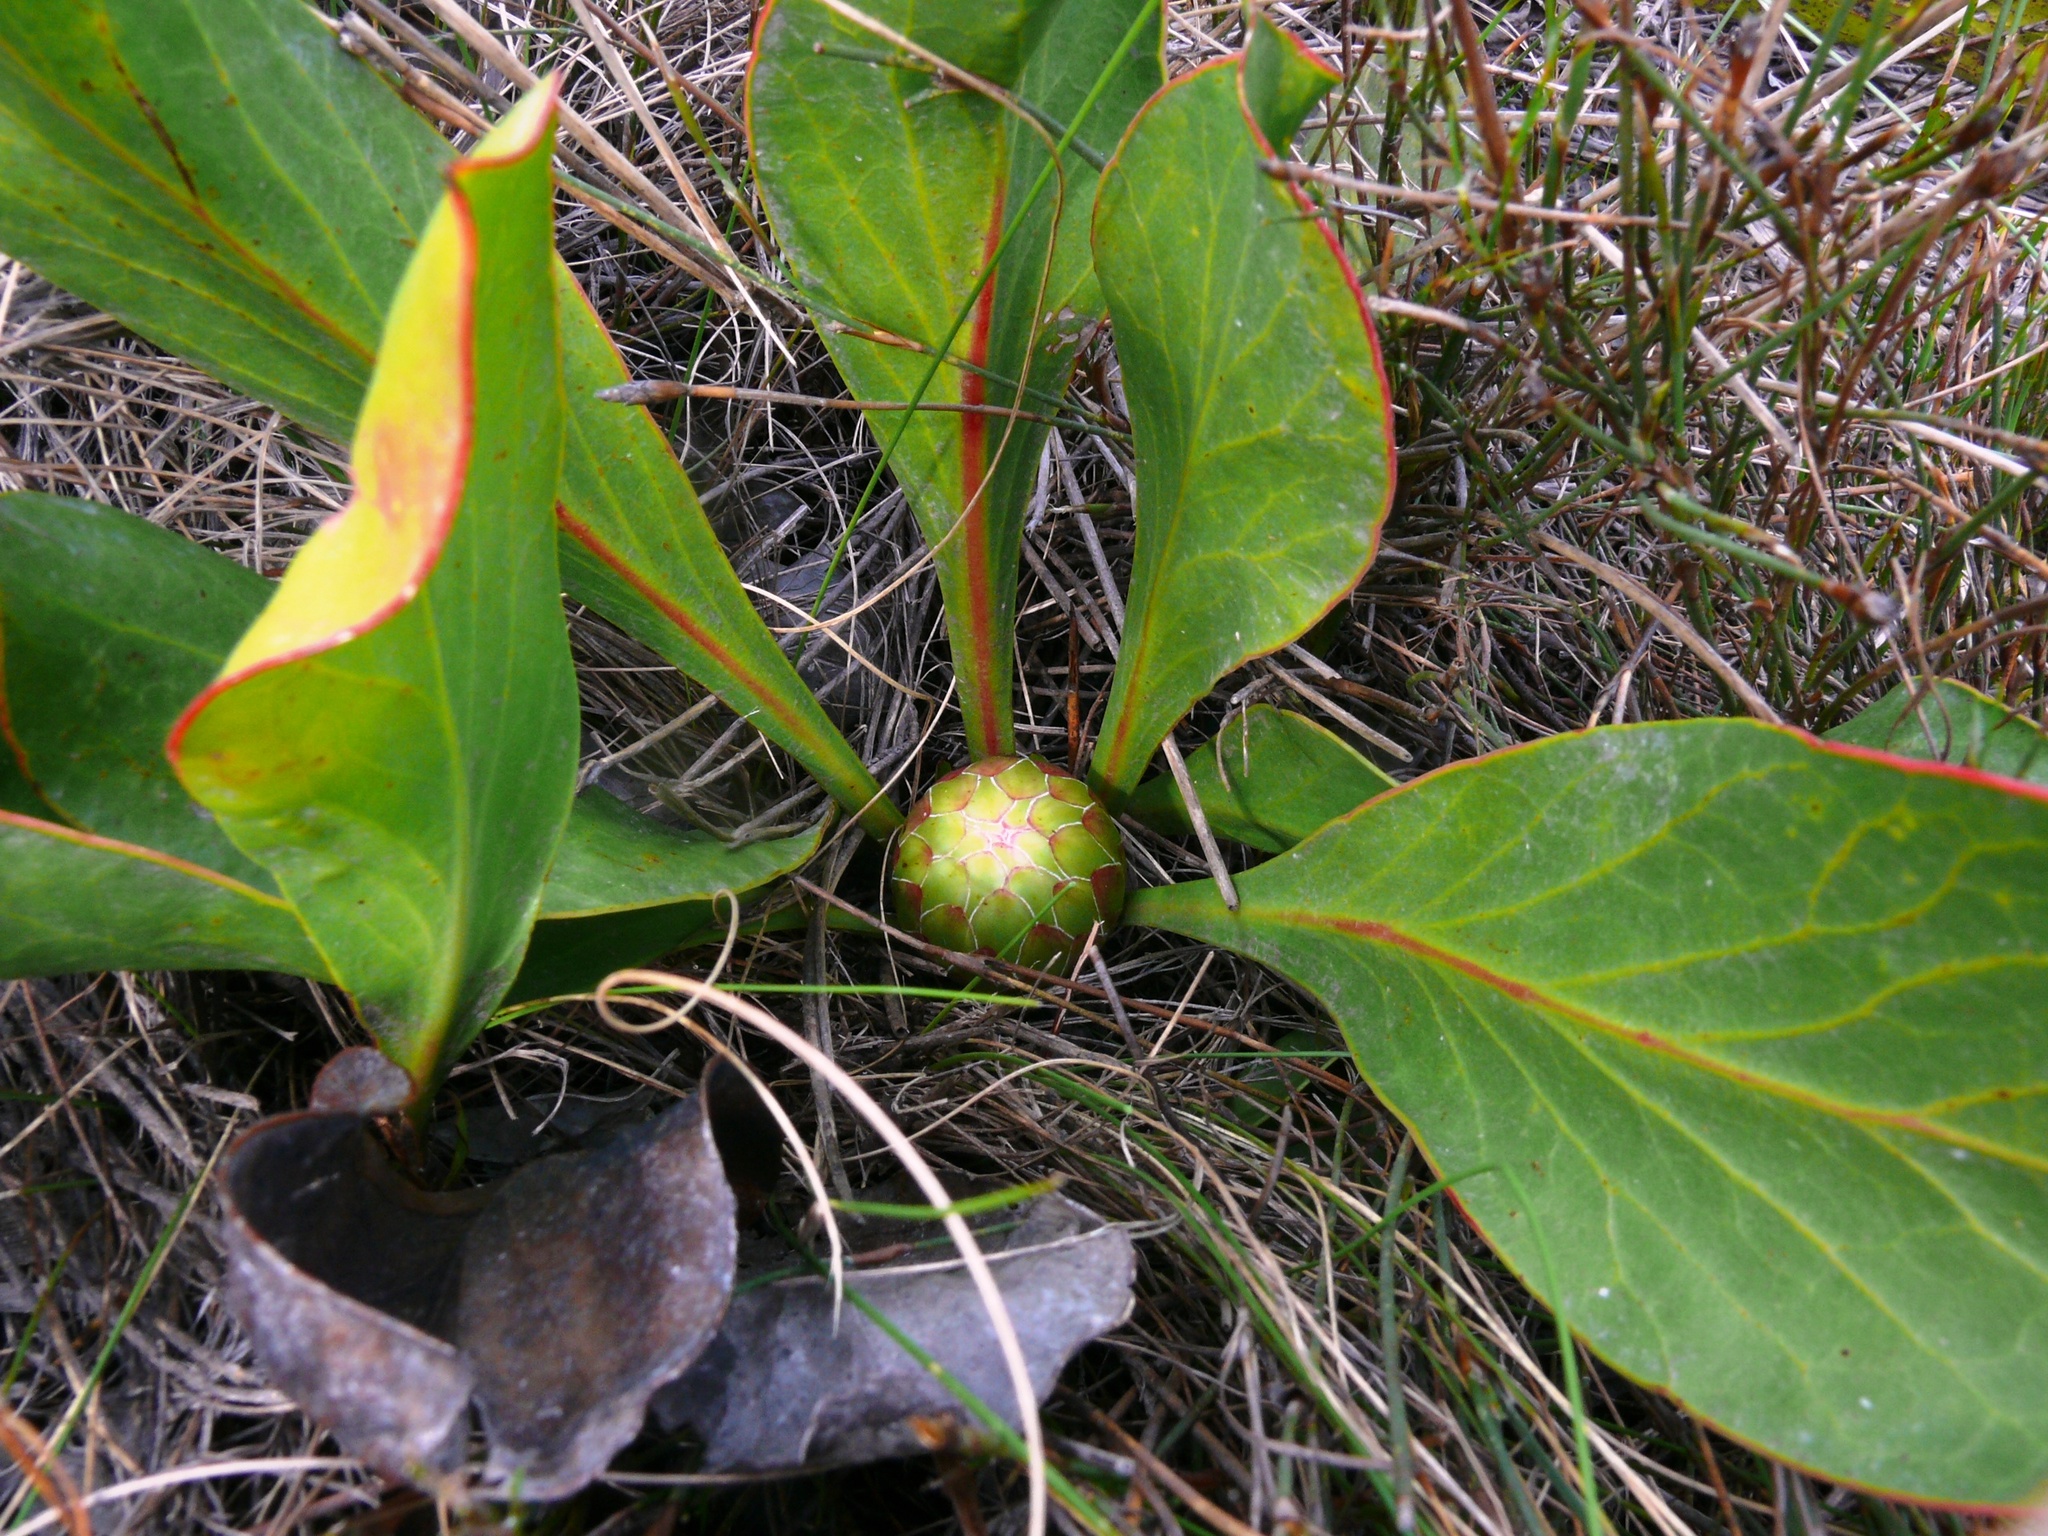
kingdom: Plantae
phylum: Tracheophyta
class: Magnoliopsida
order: Proteales
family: Proteaceae
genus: Protea
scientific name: Protea acaulos
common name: Common ground sugarbush
